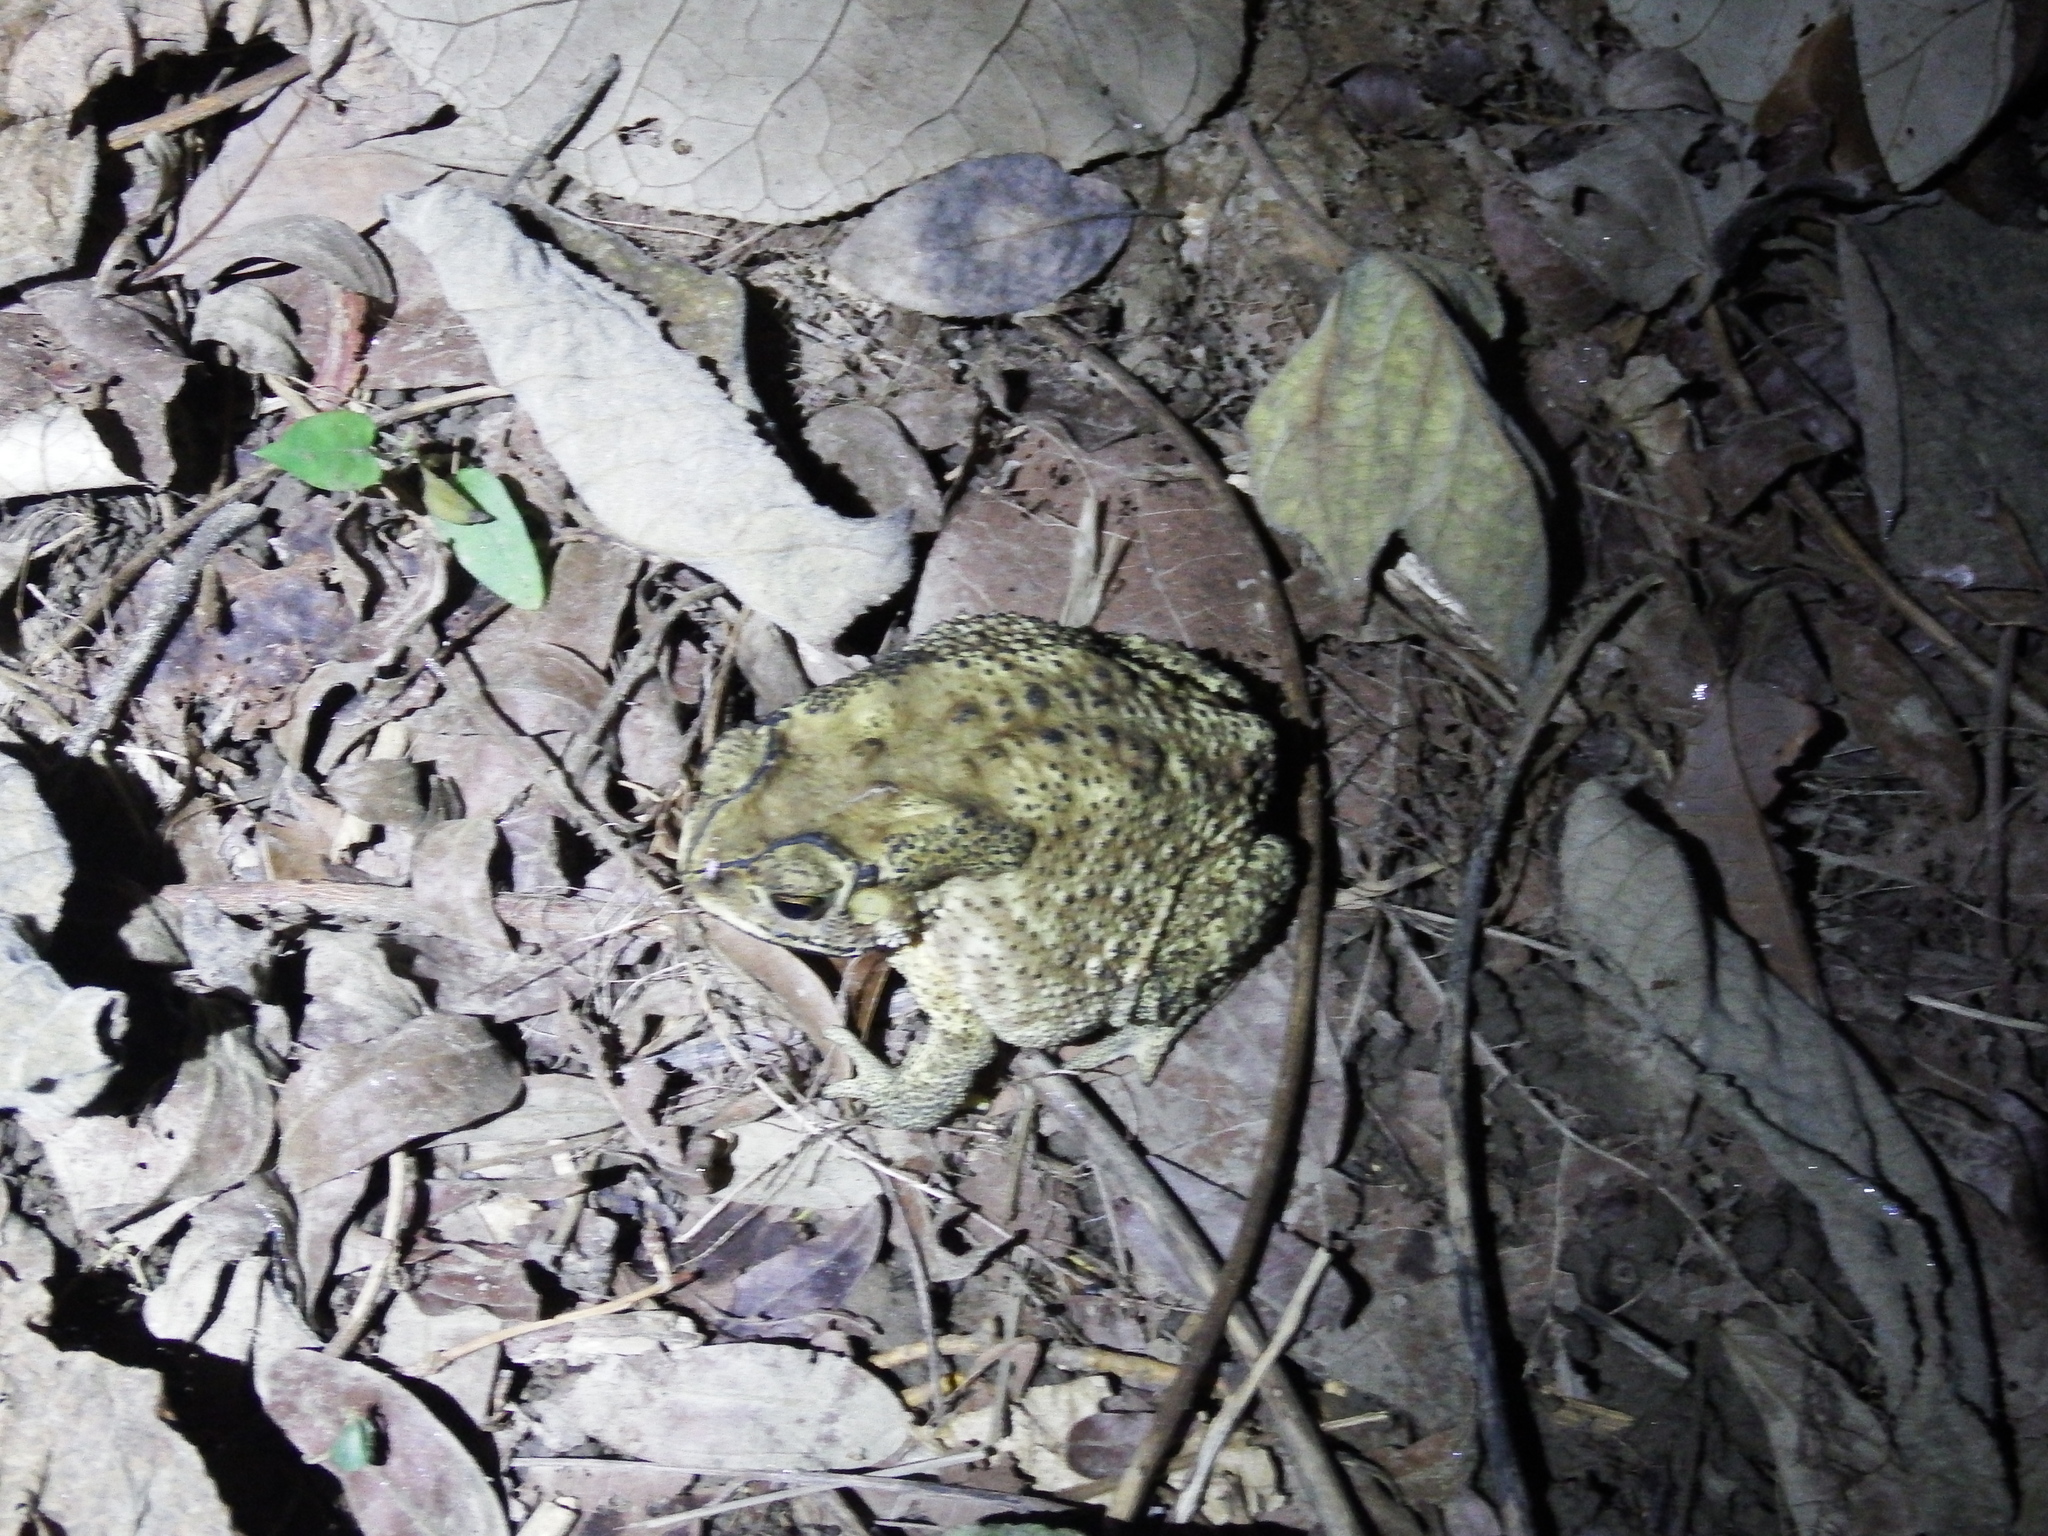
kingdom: Animalia
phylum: Chordata
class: Amphibia
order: Anura
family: Bufonidae
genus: Duttaphrynus
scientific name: Duttaphrynus melanostictus
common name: Common sunda toad
